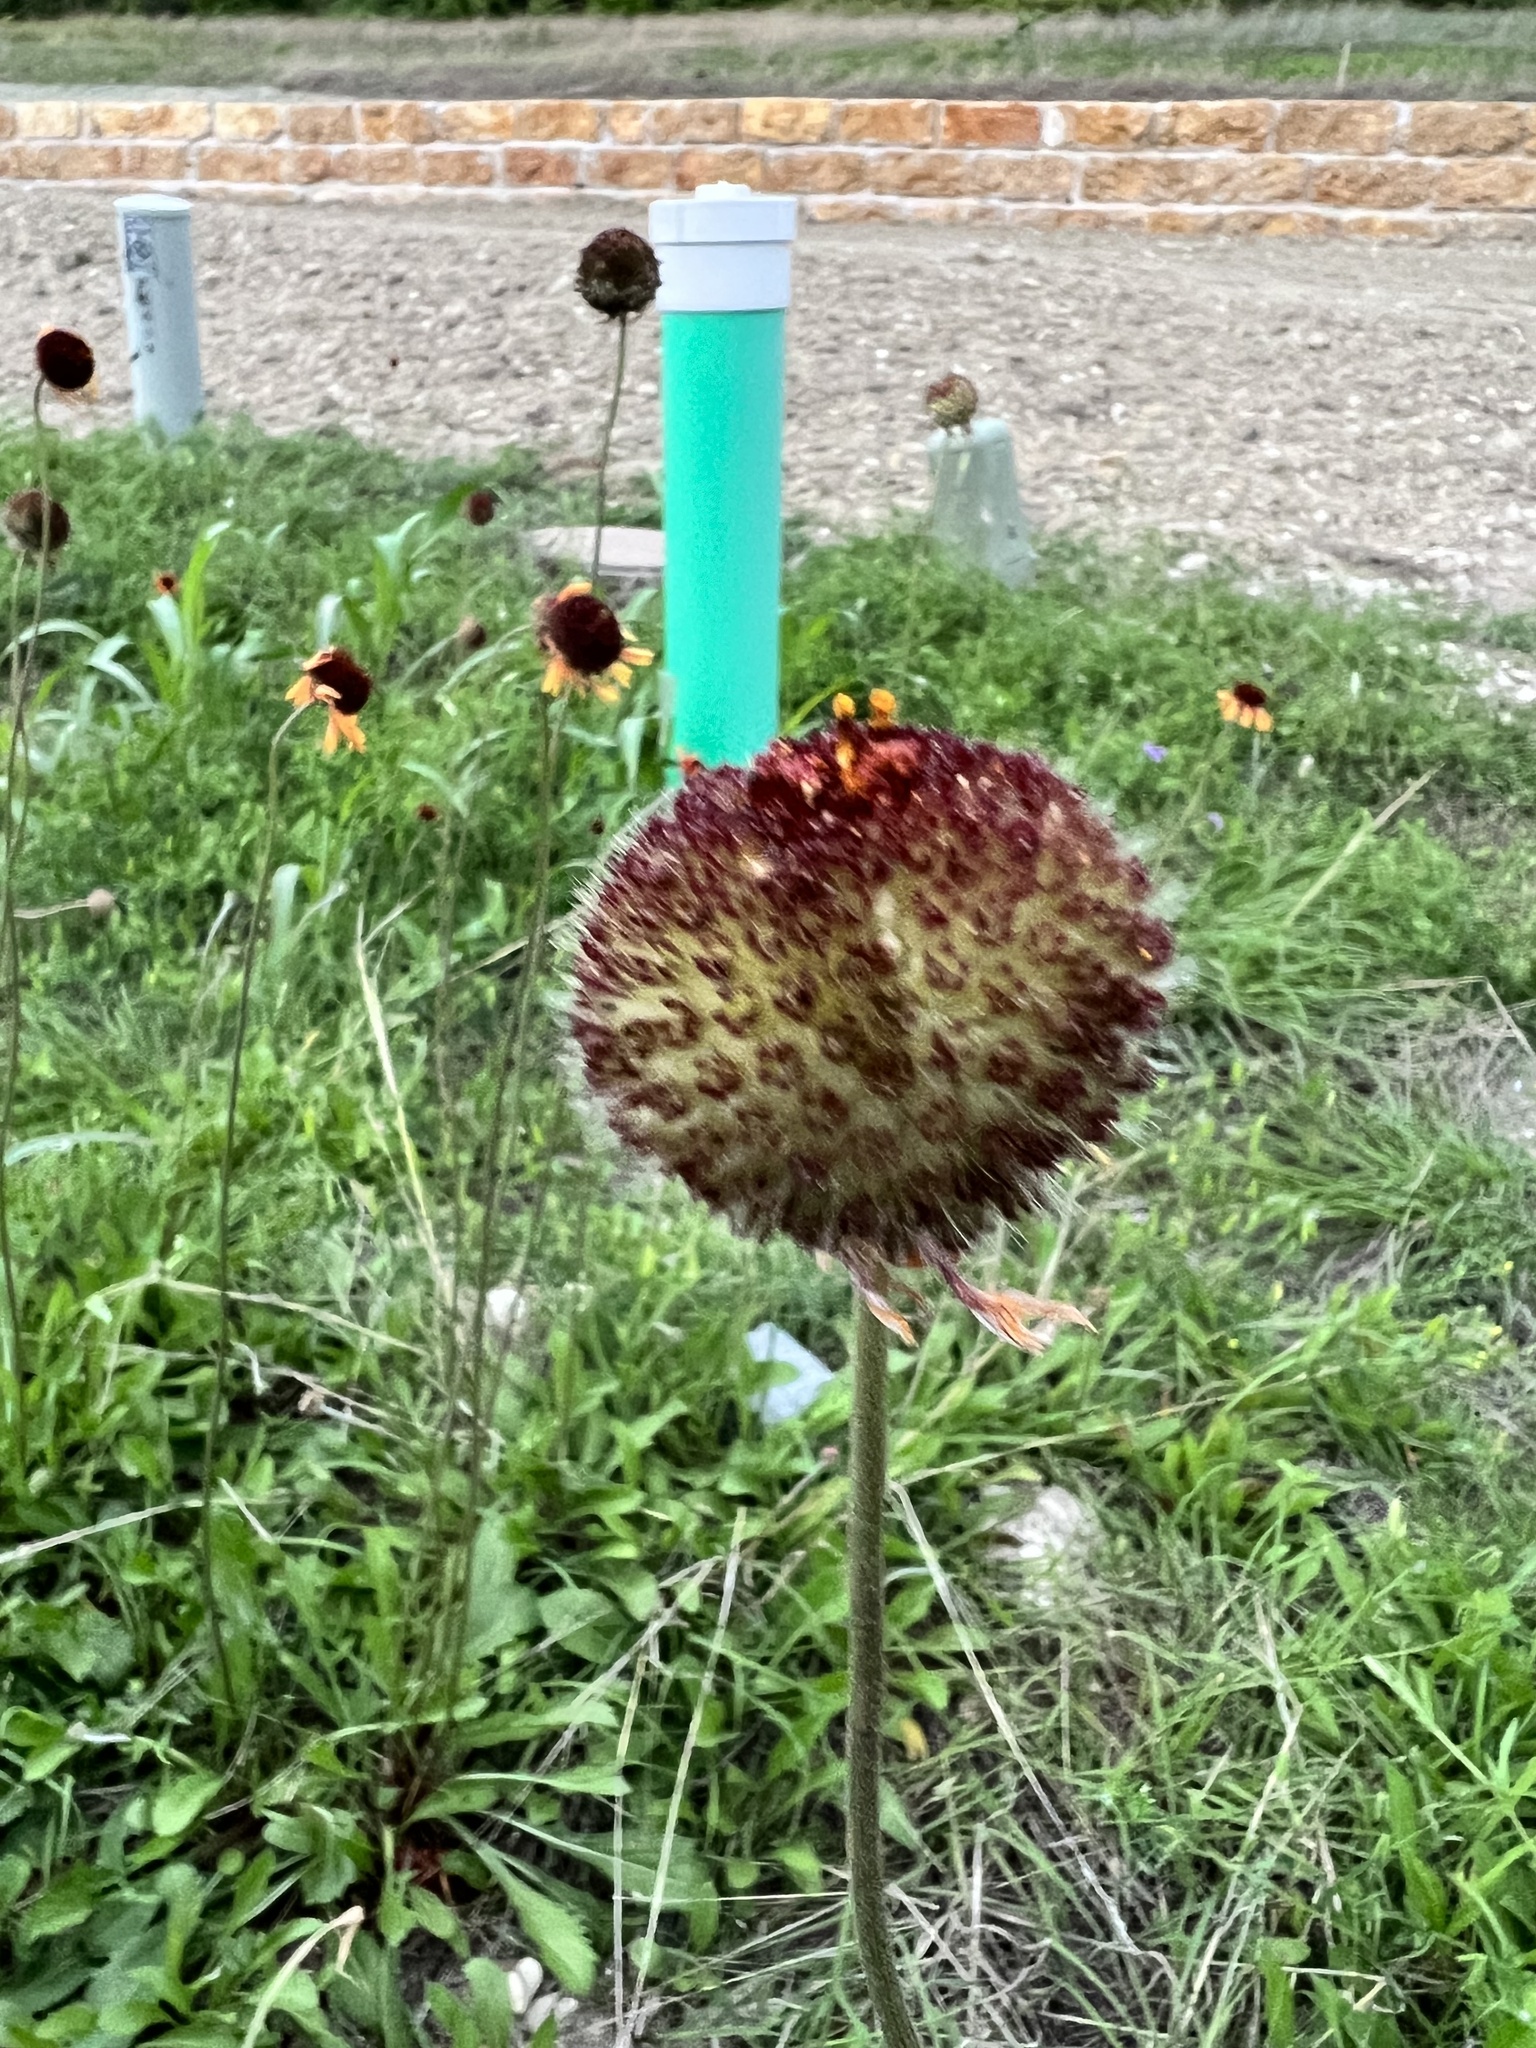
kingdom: Plantae
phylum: Tracheophyta
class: Magnoliopsida
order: Asterales
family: Asteraceae
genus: Gaillardia
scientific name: Gaillardia suavis
